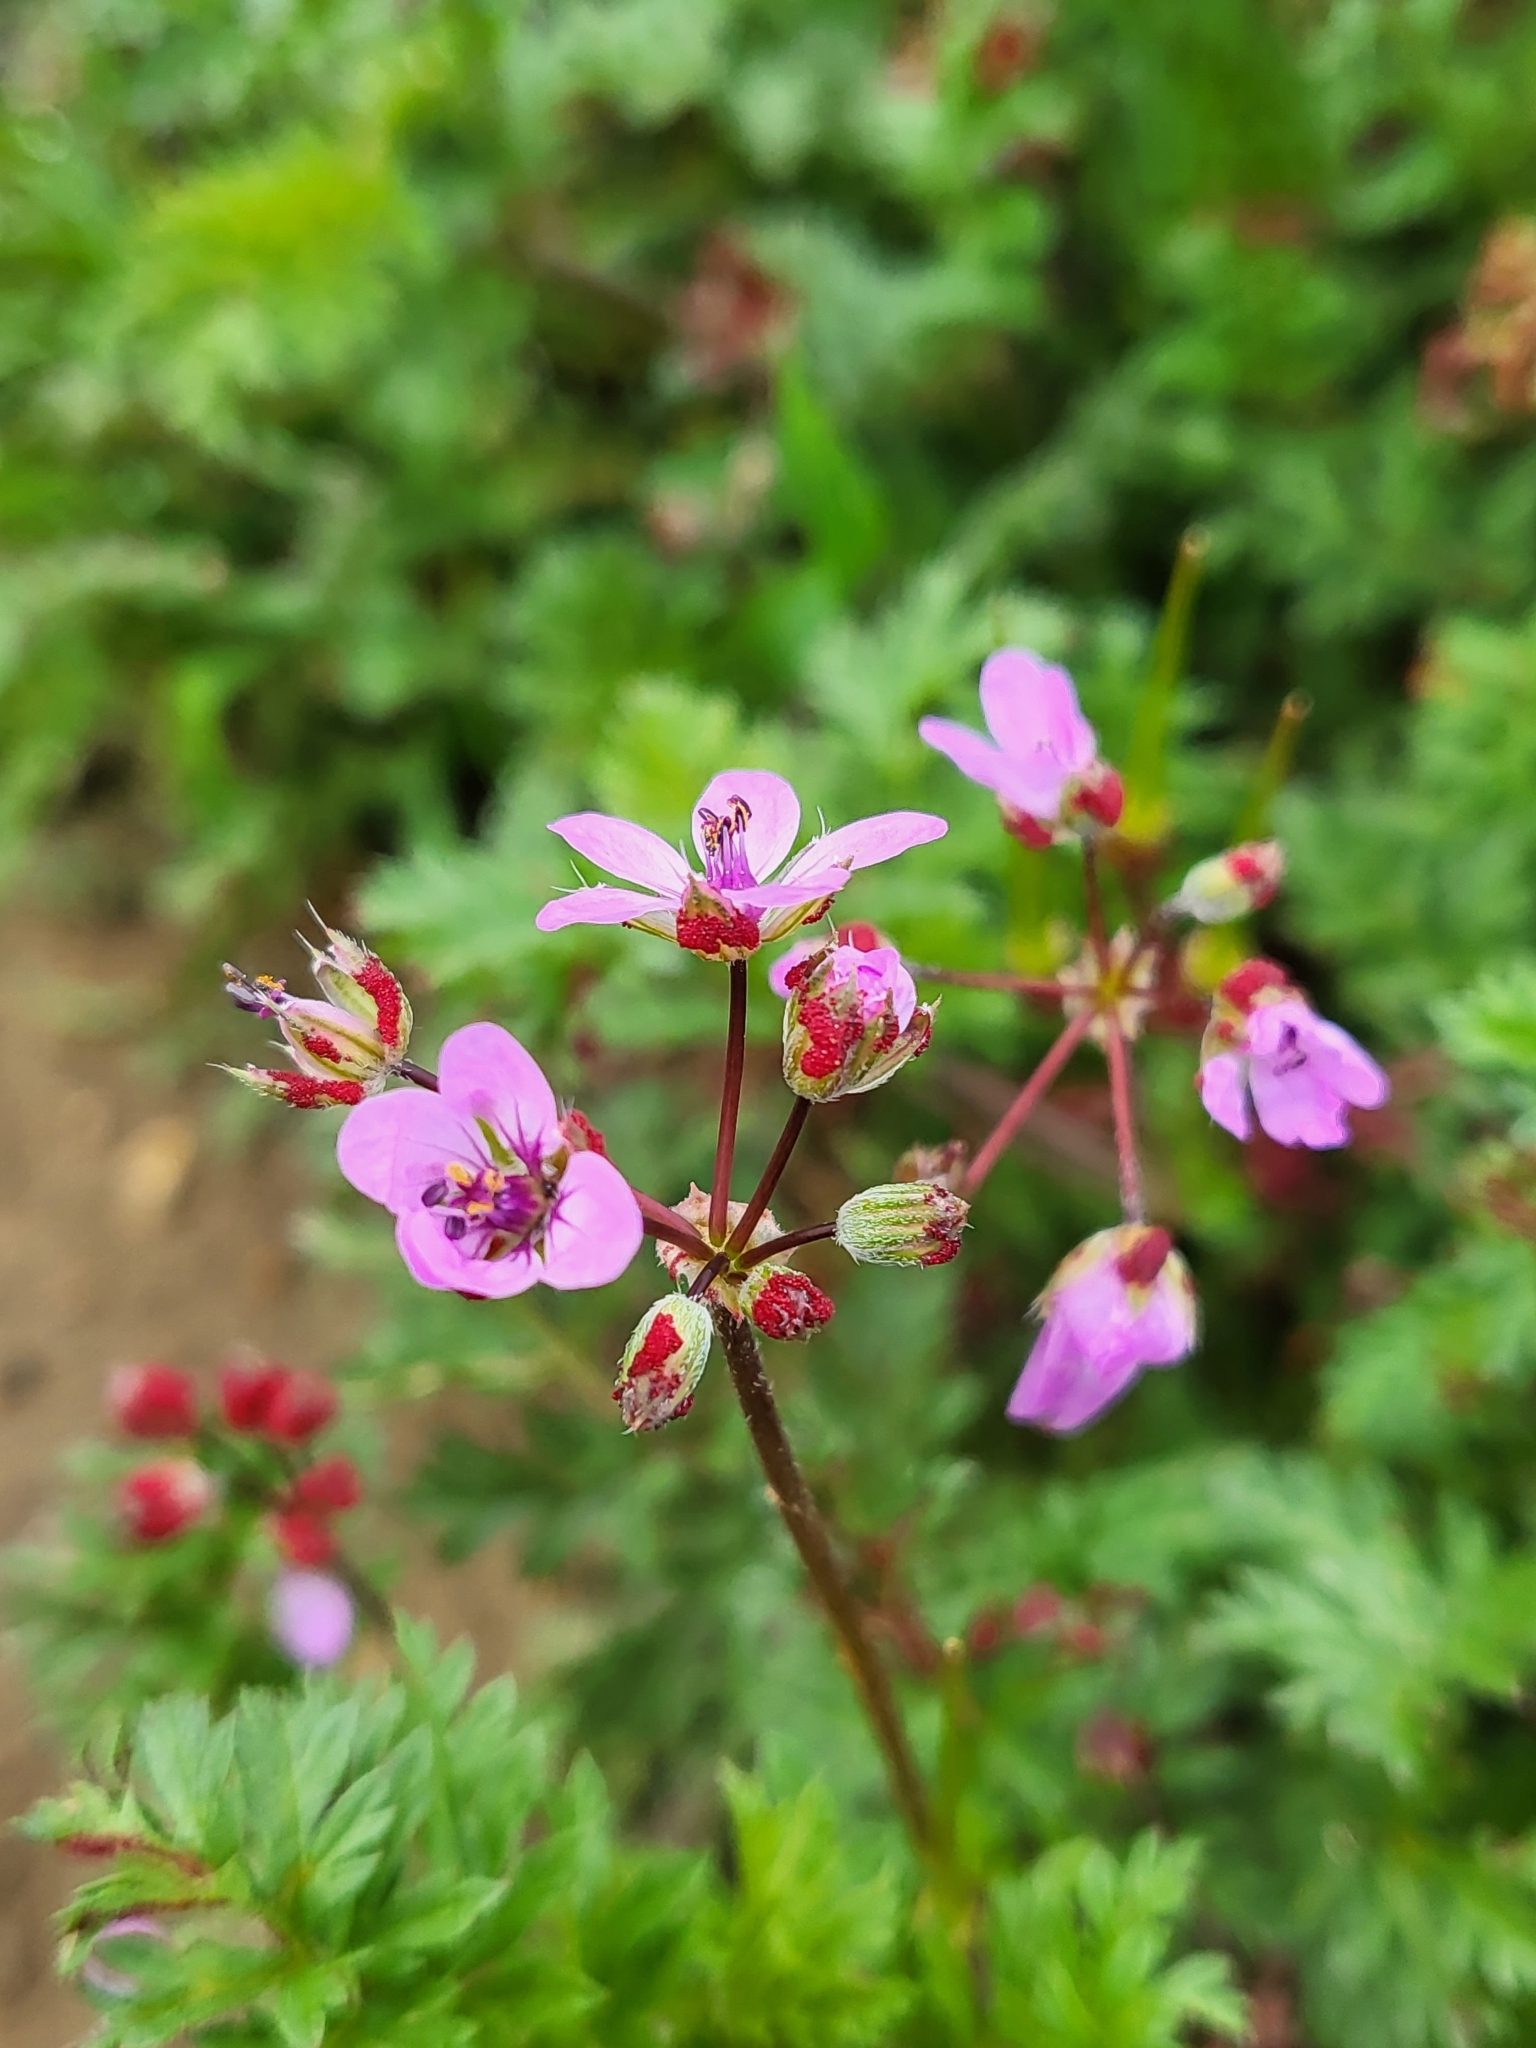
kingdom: Plantae
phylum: Tracheophyta
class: Magnoliopsida
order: Geraniales
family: Geraniaceae
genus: Erodium
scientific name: Erodium cicutarium
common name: Common stork's-bill
